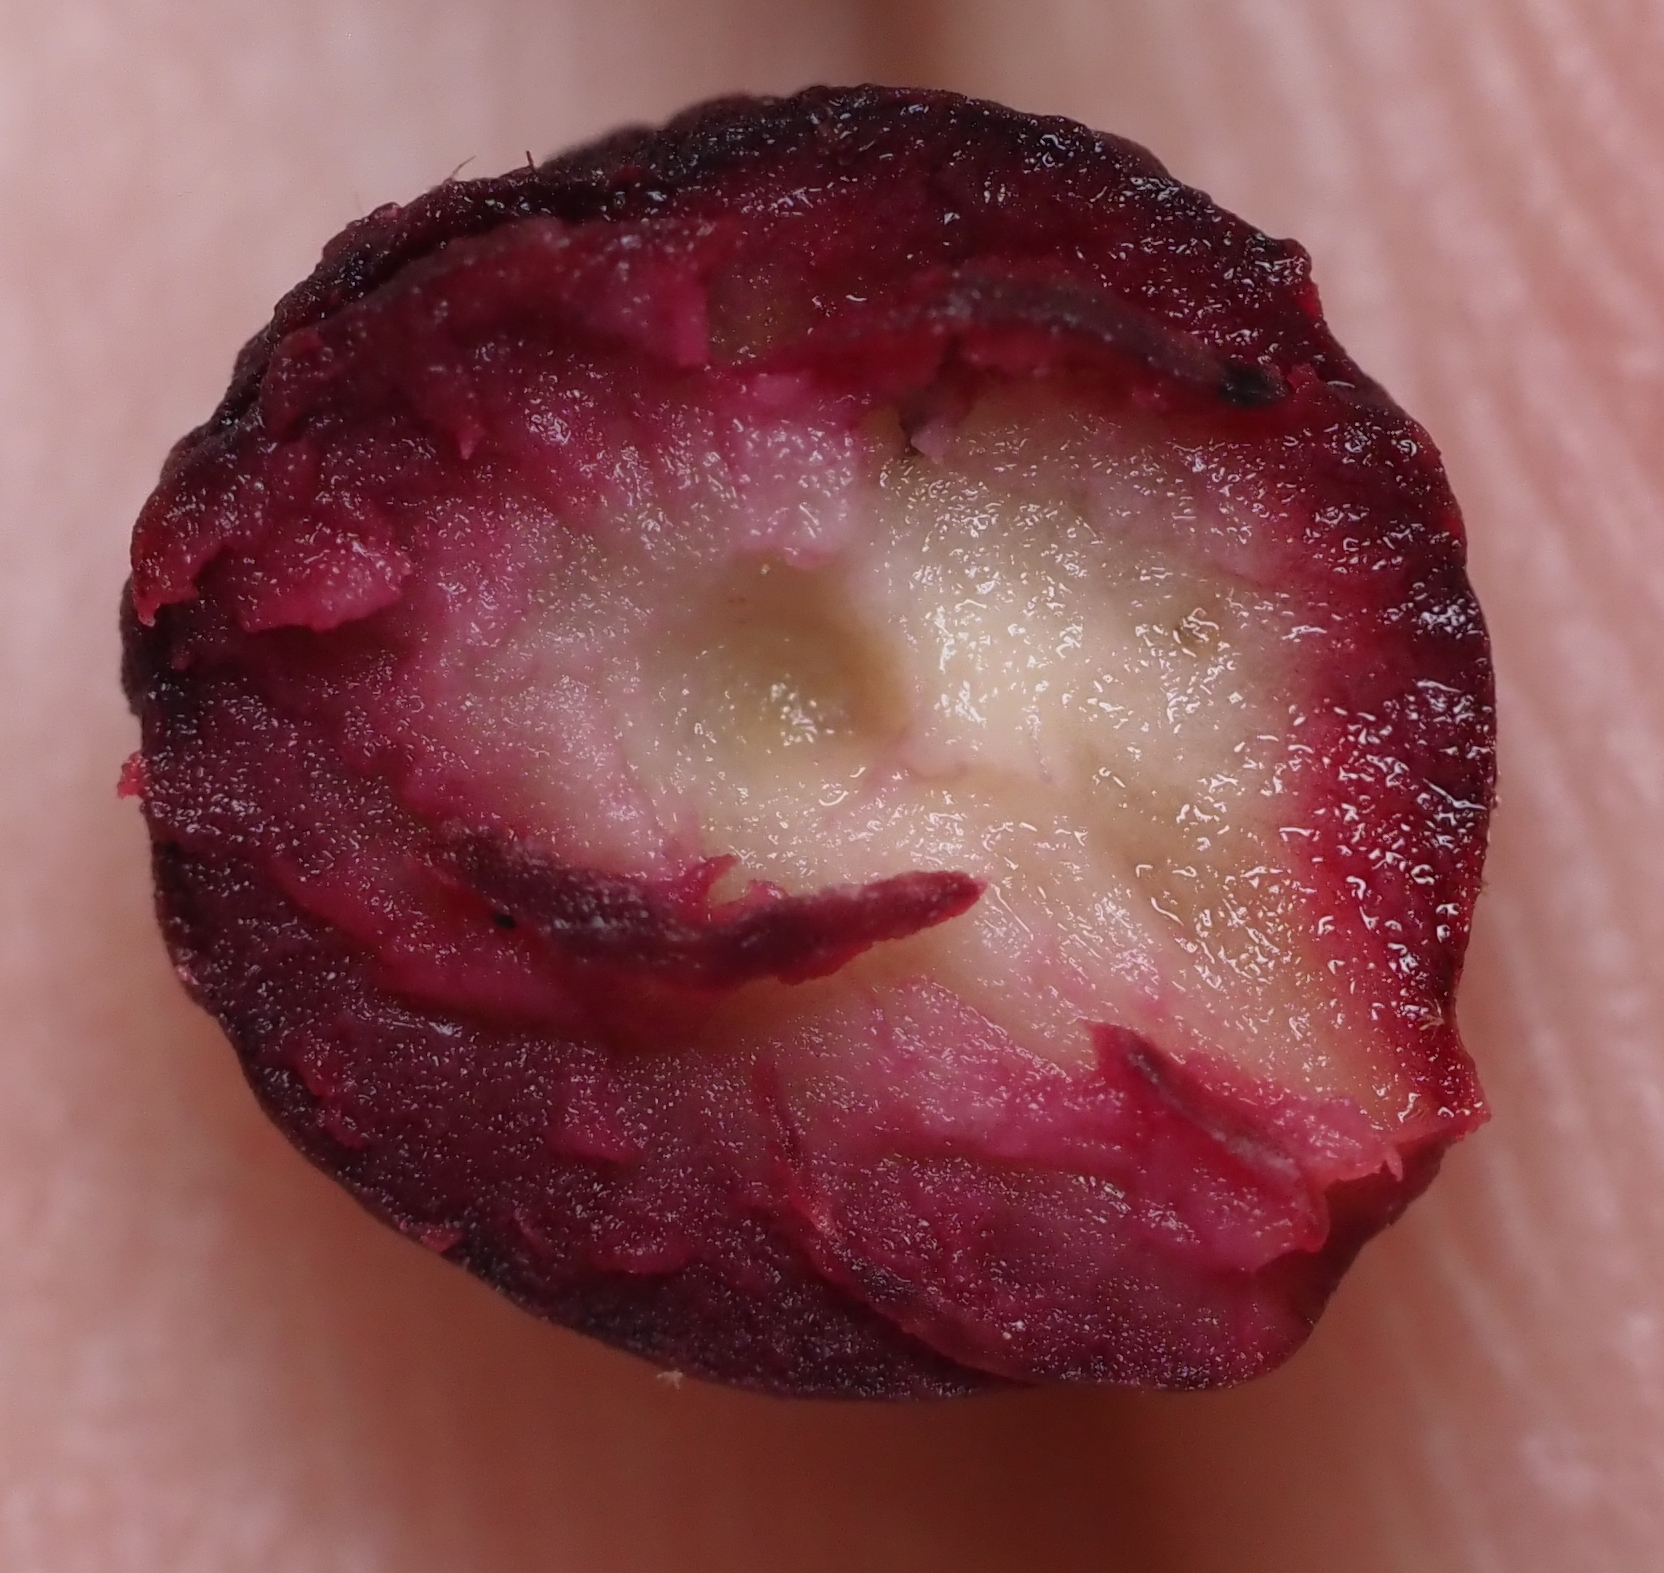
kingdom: Animalia
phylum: Arthropoda
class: Insecta
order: Hymenoptera
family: Cynipidae
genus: Kokkocynips
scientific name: Kokkocynips imbricariae
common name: Banded bullet gall wasp
